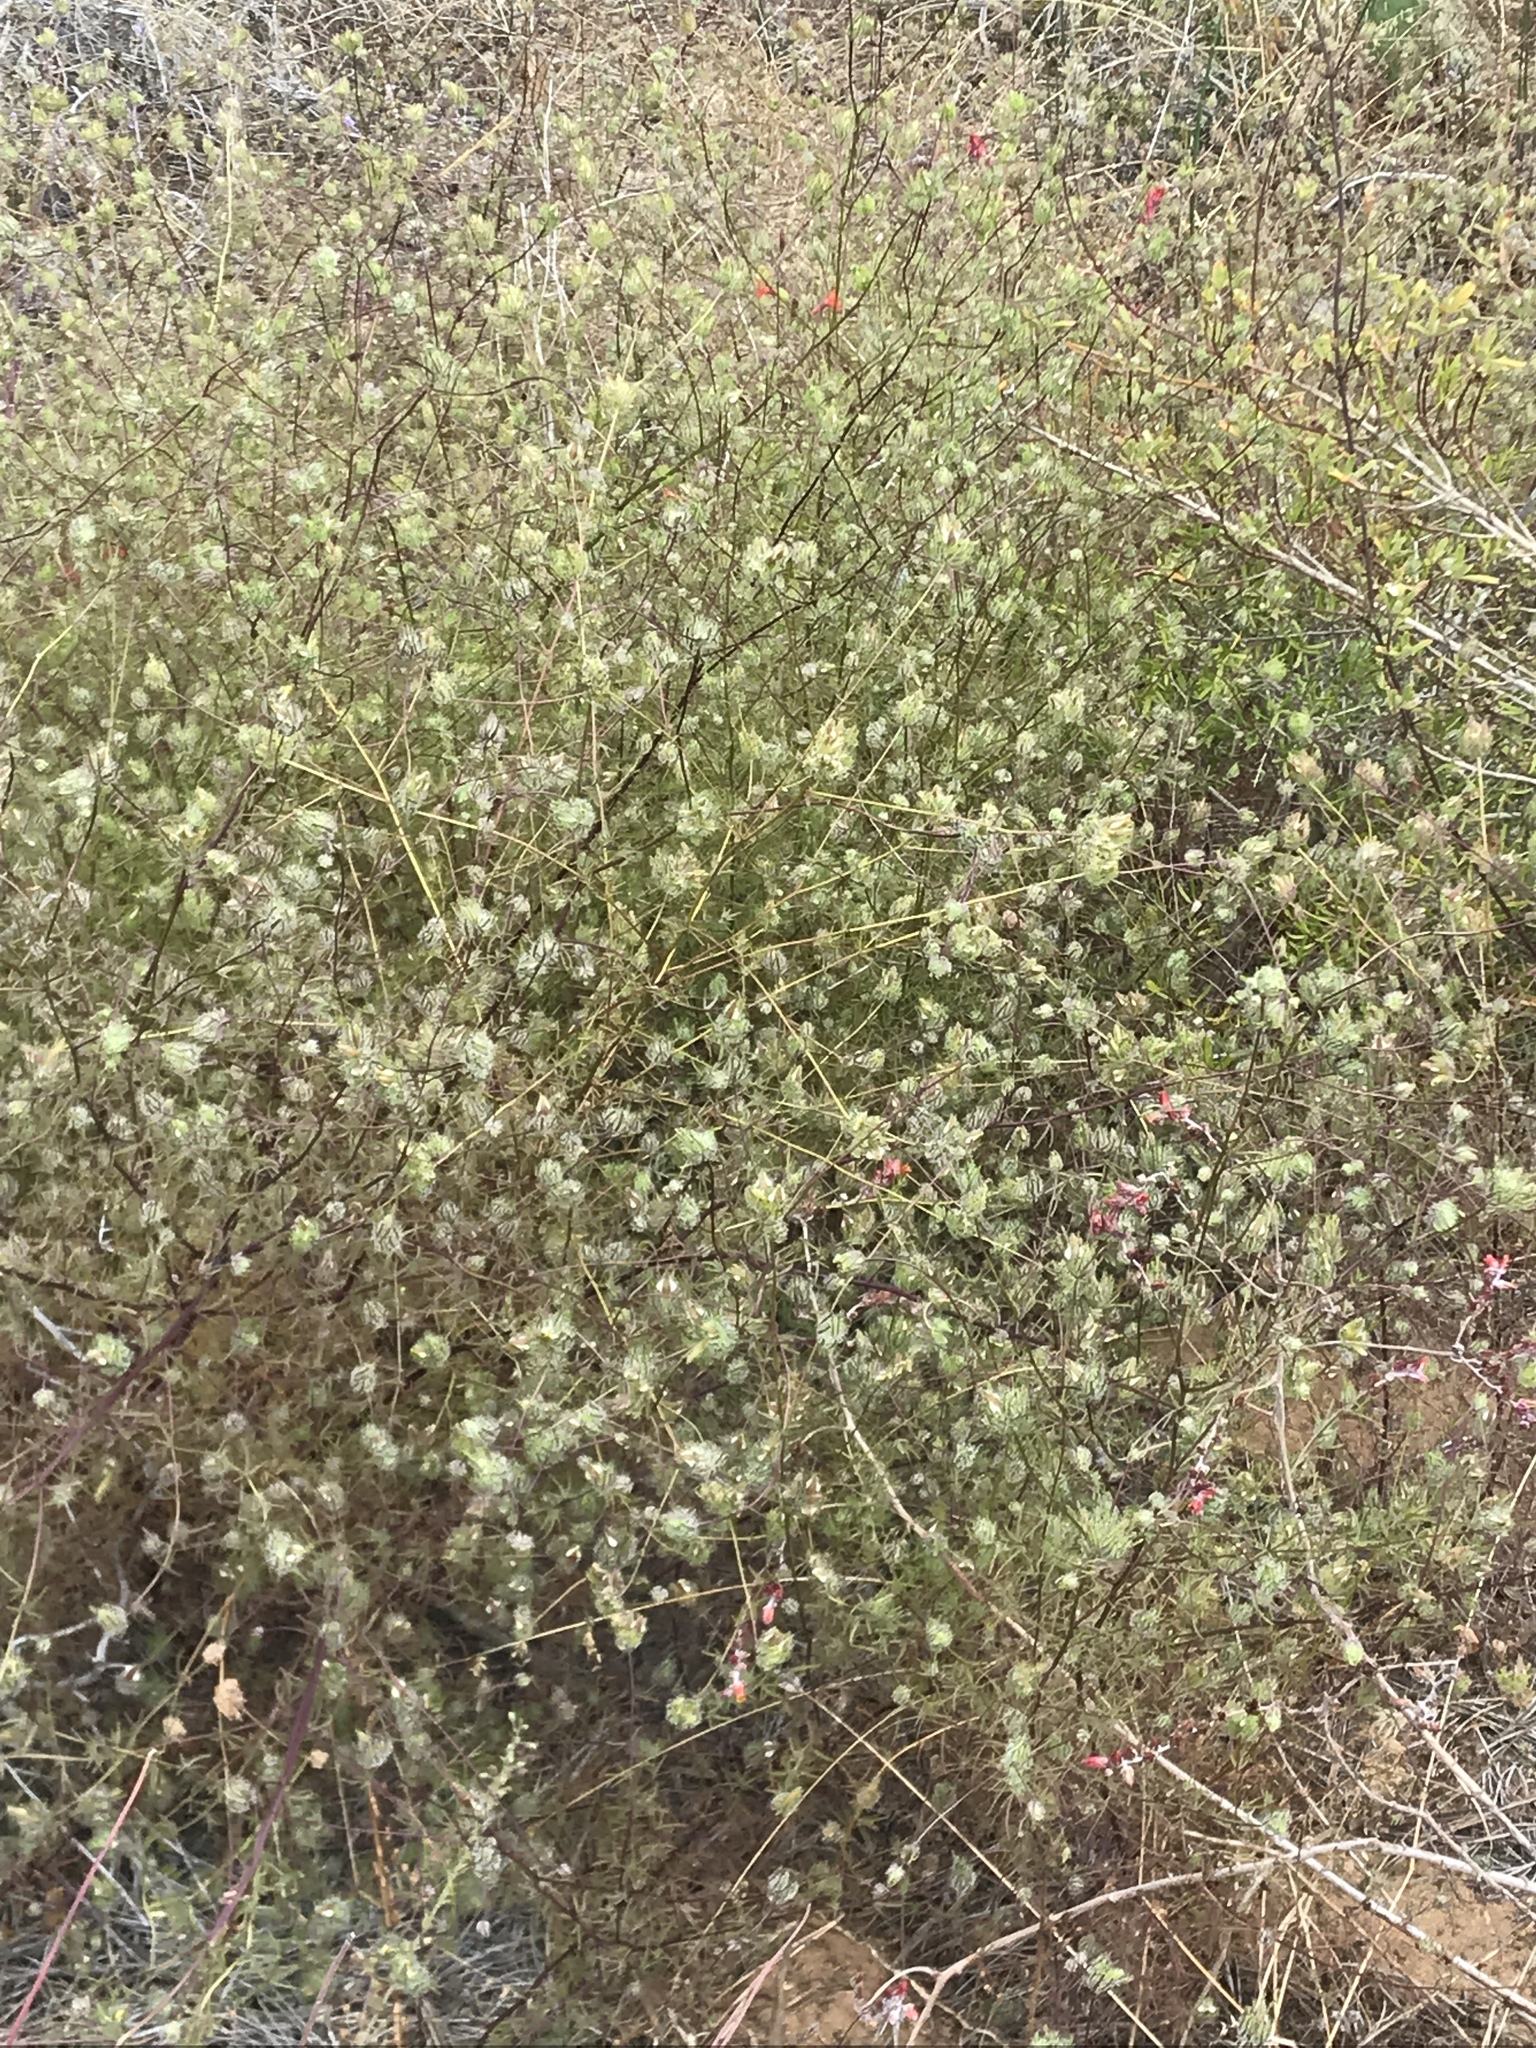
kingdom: Plantae
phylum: Tracheophyta
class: Magnoliopsida
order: Lamiales
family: Orobanchaceae
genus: Cordylanthus
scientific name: Cordylanthus rigidus
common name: Stiff-branch bird's-beak
